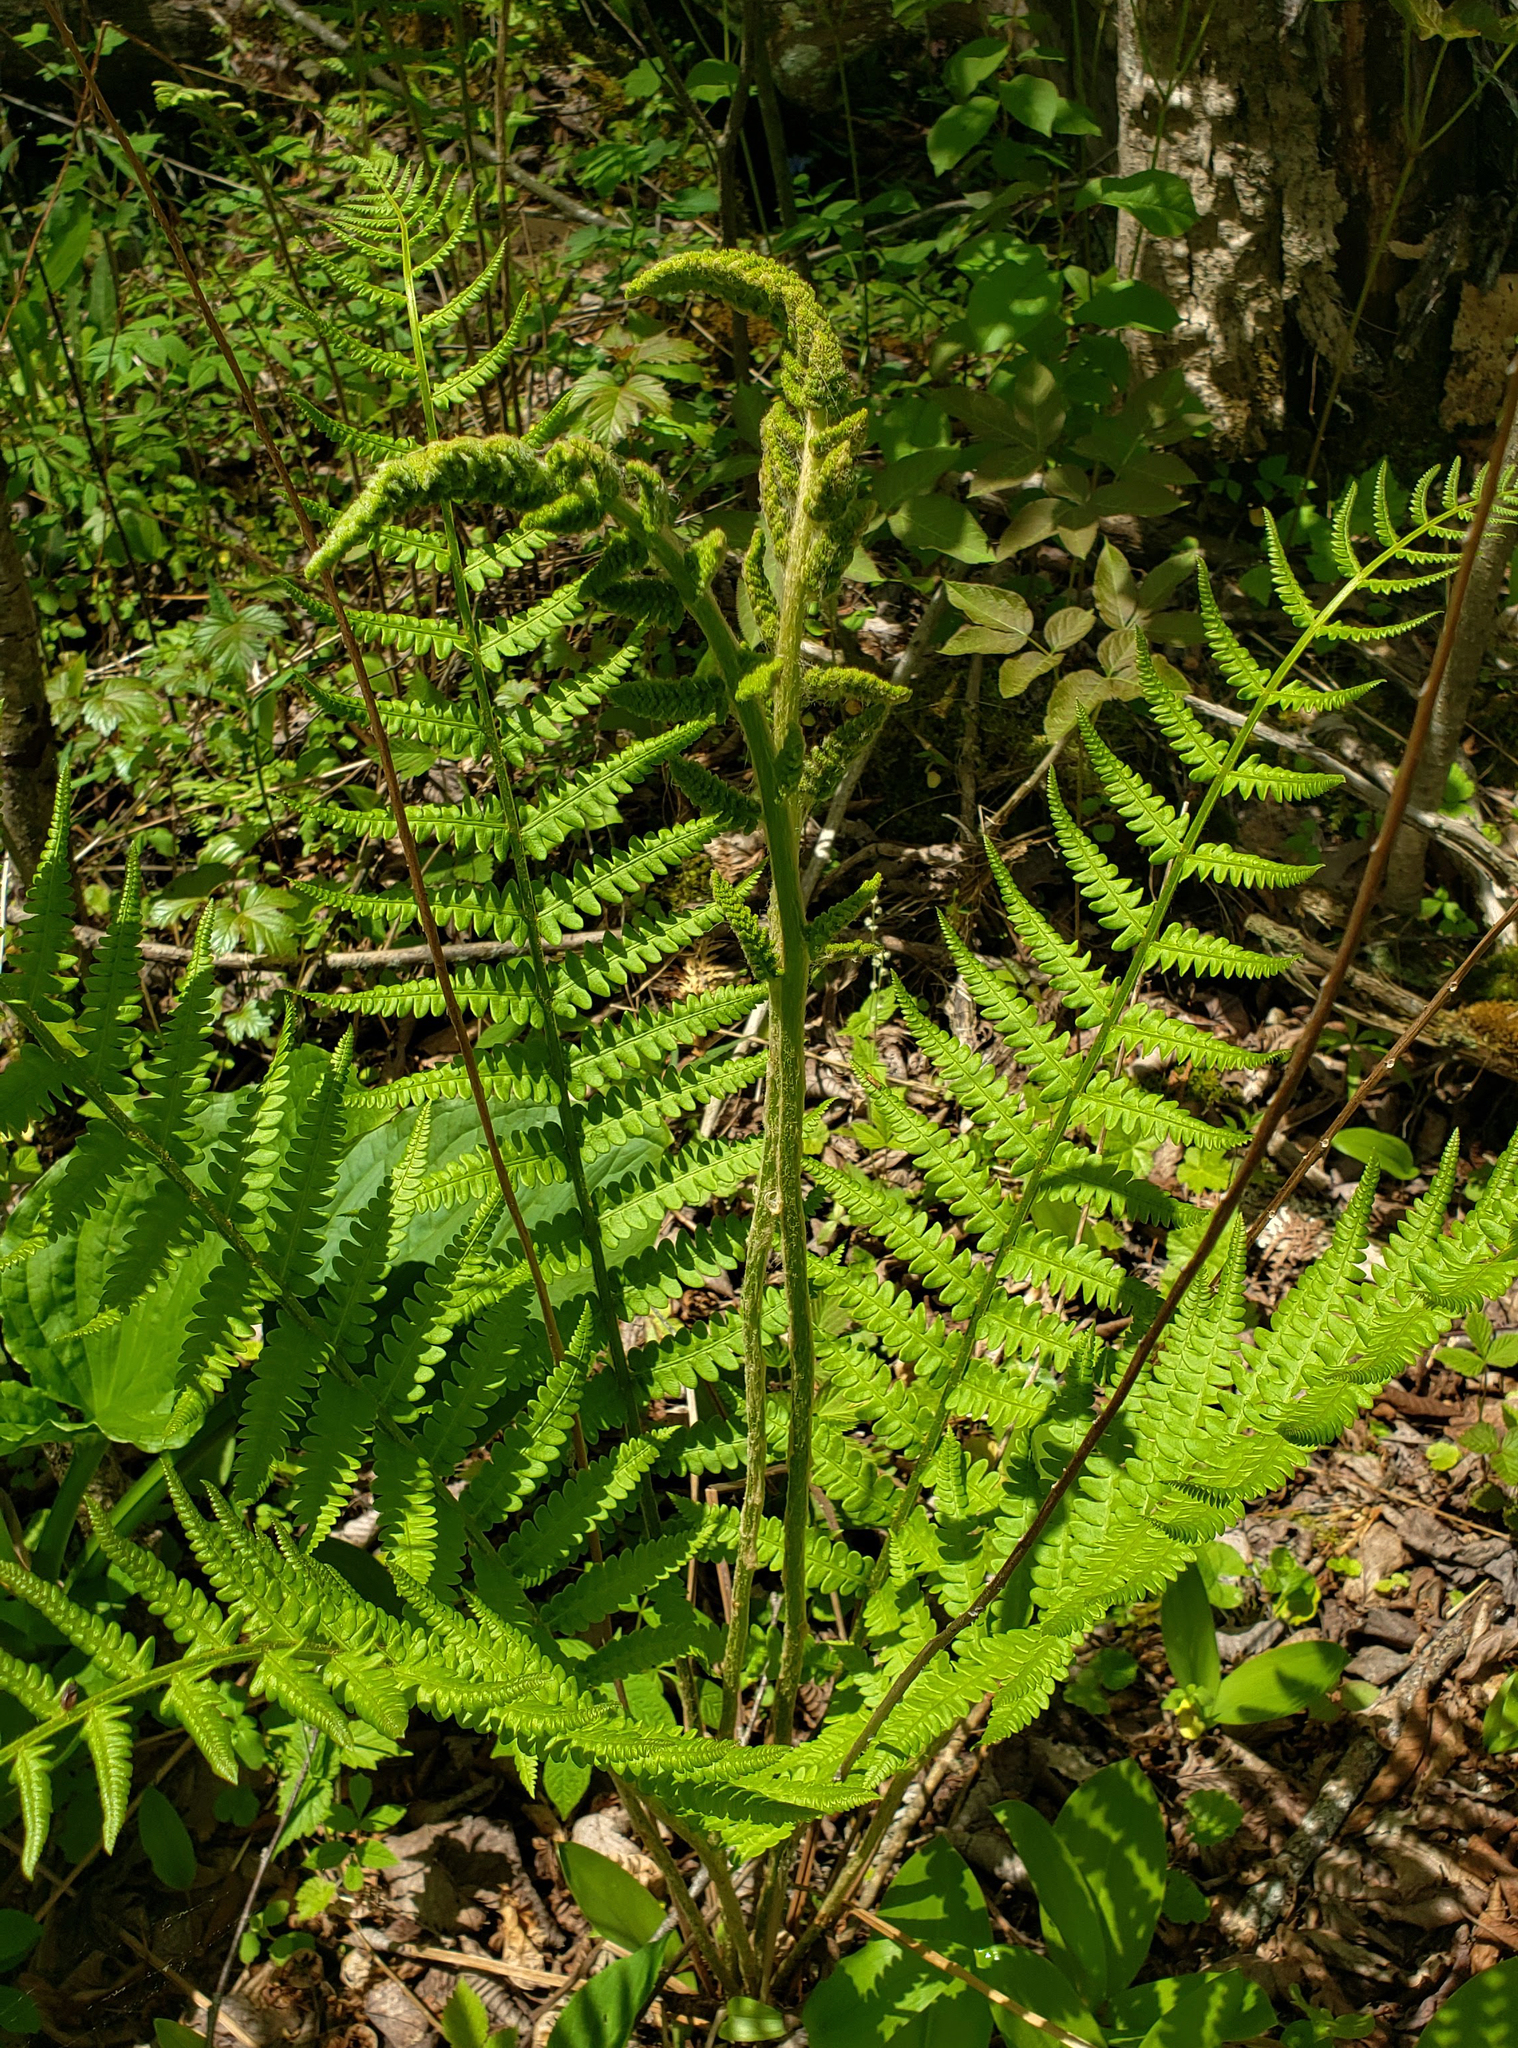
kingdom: Plantae
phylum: Tracheophyta
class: Polypodiopsida
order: Osmundales
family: Osmundaceae
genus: Osmundastrum
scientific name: Osmundastrum cinnamomeum
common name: Cinnamon fern
